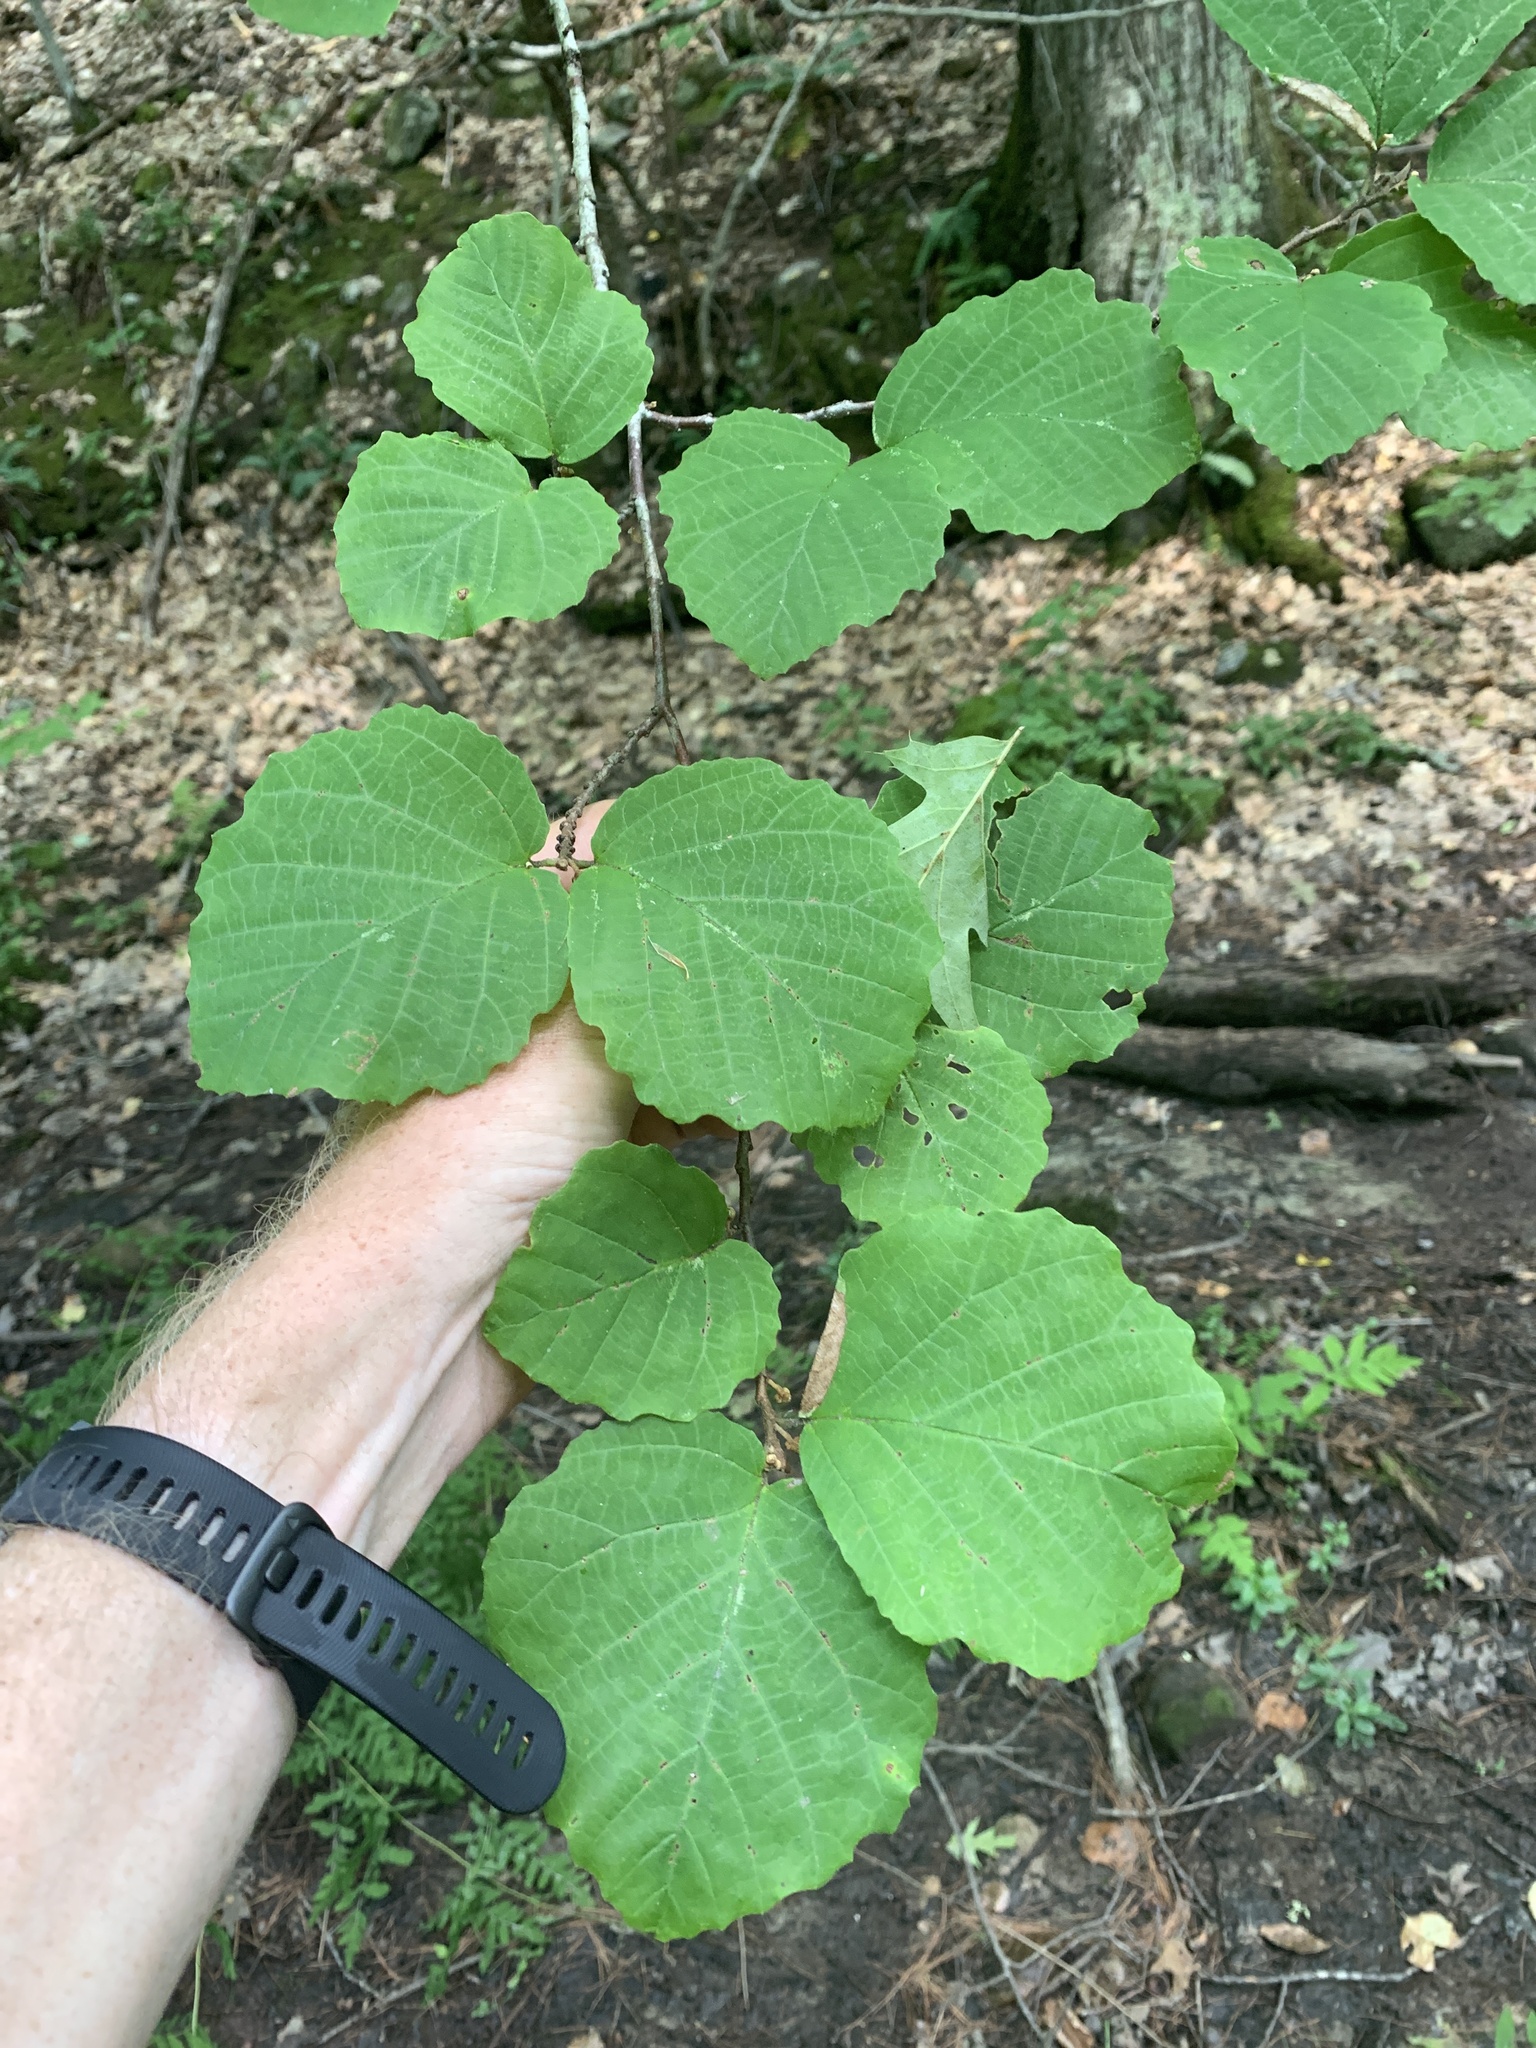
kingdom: Plantae
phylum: Tracheophyta
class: Magnoliopsida
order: Saxifragales
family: Hamamelidaceae
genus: Hamamelis
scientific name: Hamamelis virginiana
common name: Witch-hazel
